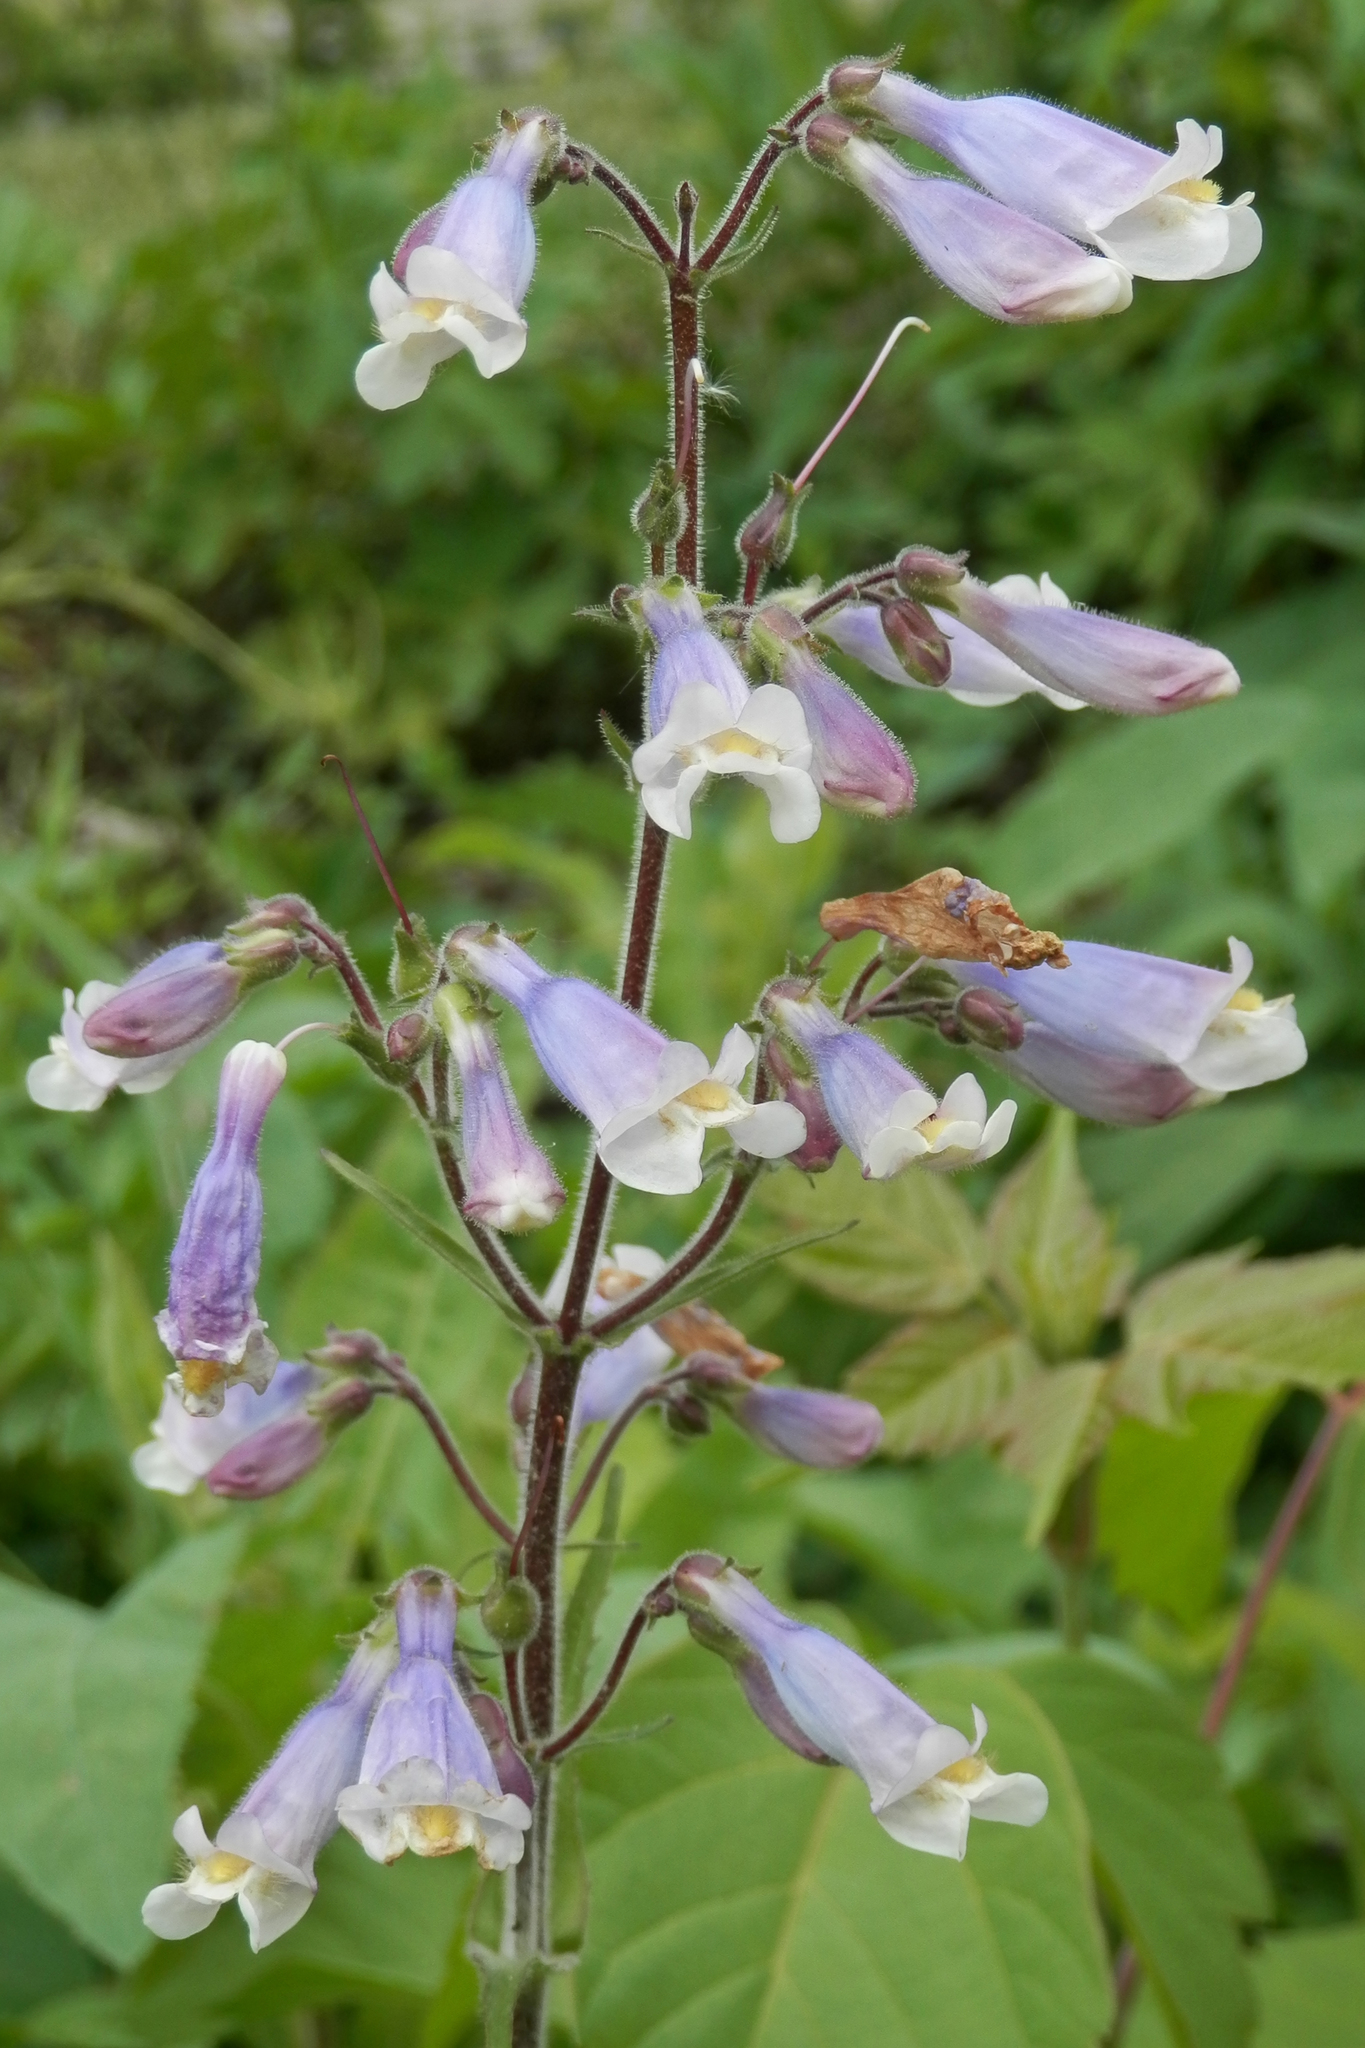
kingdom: Plantae
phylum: Tracheophyta
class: Magnoliopsida
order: Lamiales
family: Plantaginaceae
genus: Penstemon
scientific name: Penstemon hirsutus
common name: Hairy beardtongue
